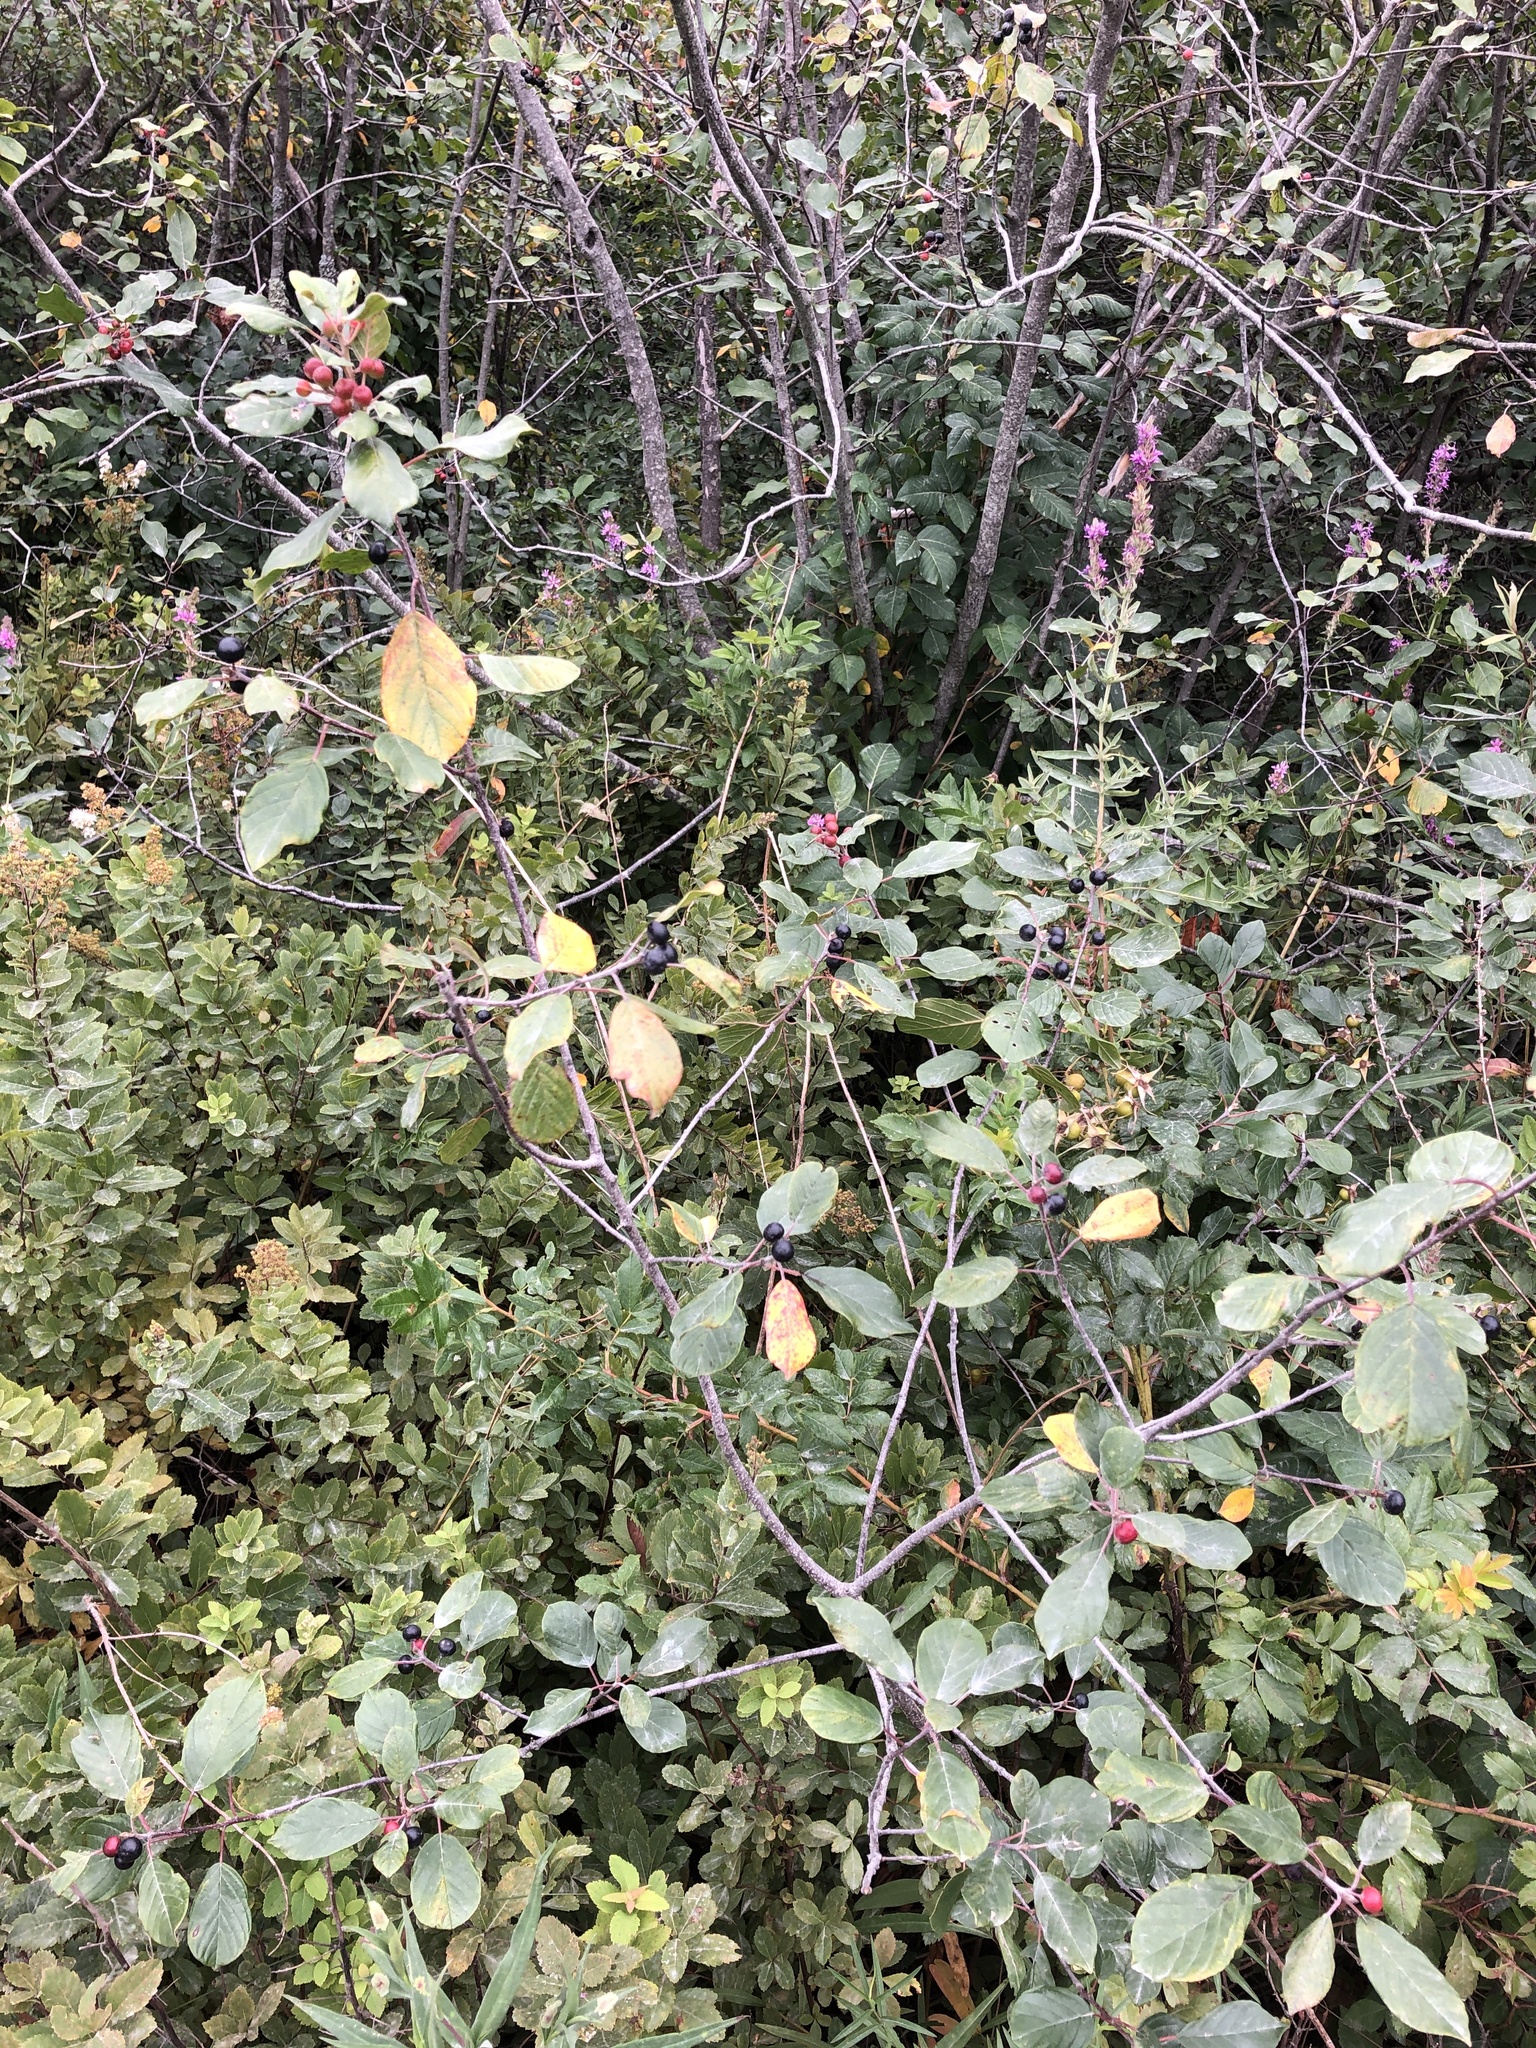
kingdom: Plantae
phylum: Tracheophyta
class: Magnoliopsida
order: Rosales
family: Rhamnaceae
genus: Frangula
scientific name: Frangula alnus
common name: Alder buckthorn
